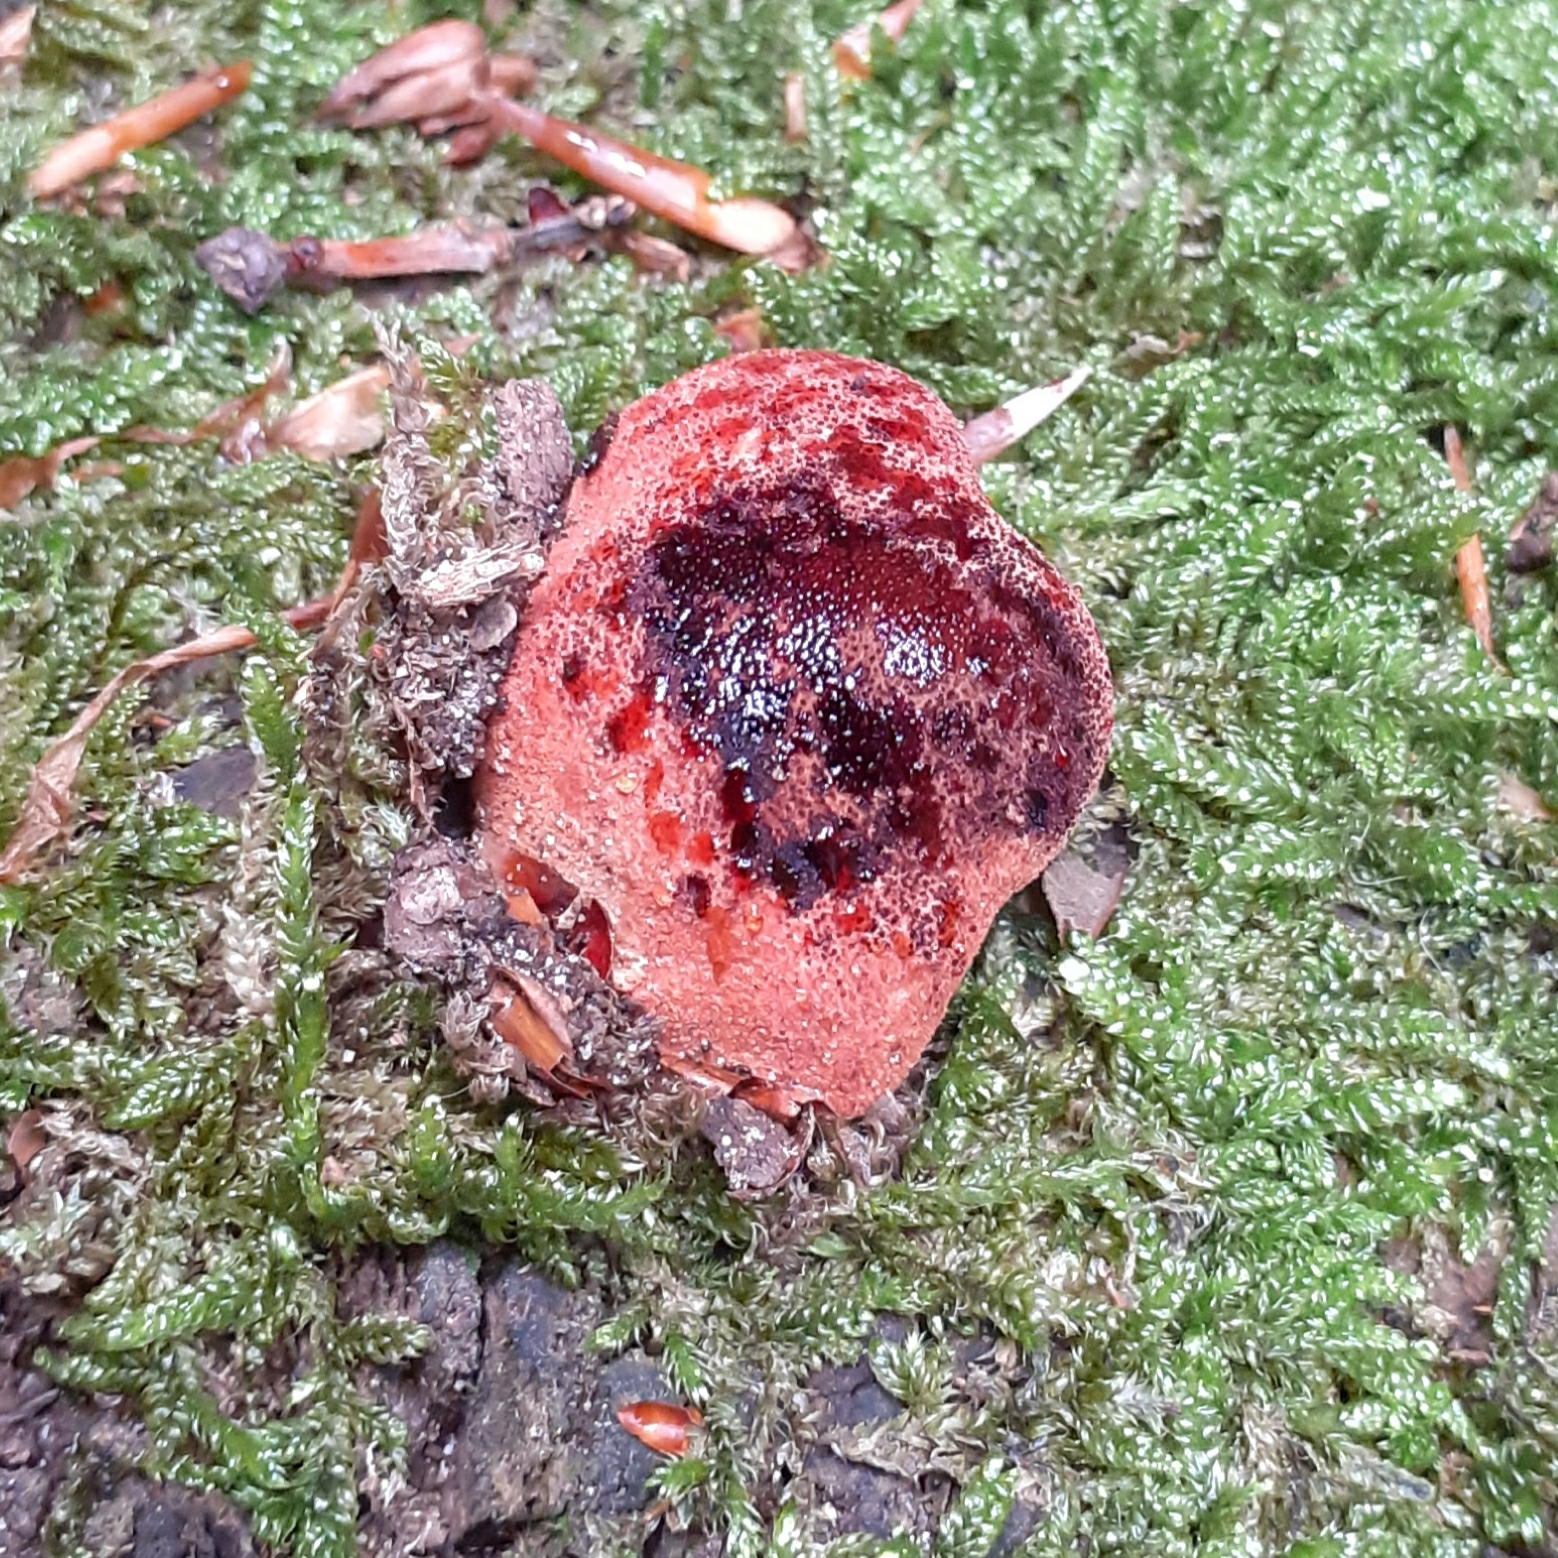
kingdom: Fungi
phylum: Basidiomycota
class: Agaricomycetes
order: Agaricales
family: Fistulinaceae
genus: Fistulina
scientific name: Fistulina hepatica
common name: Beef-steak fungus
